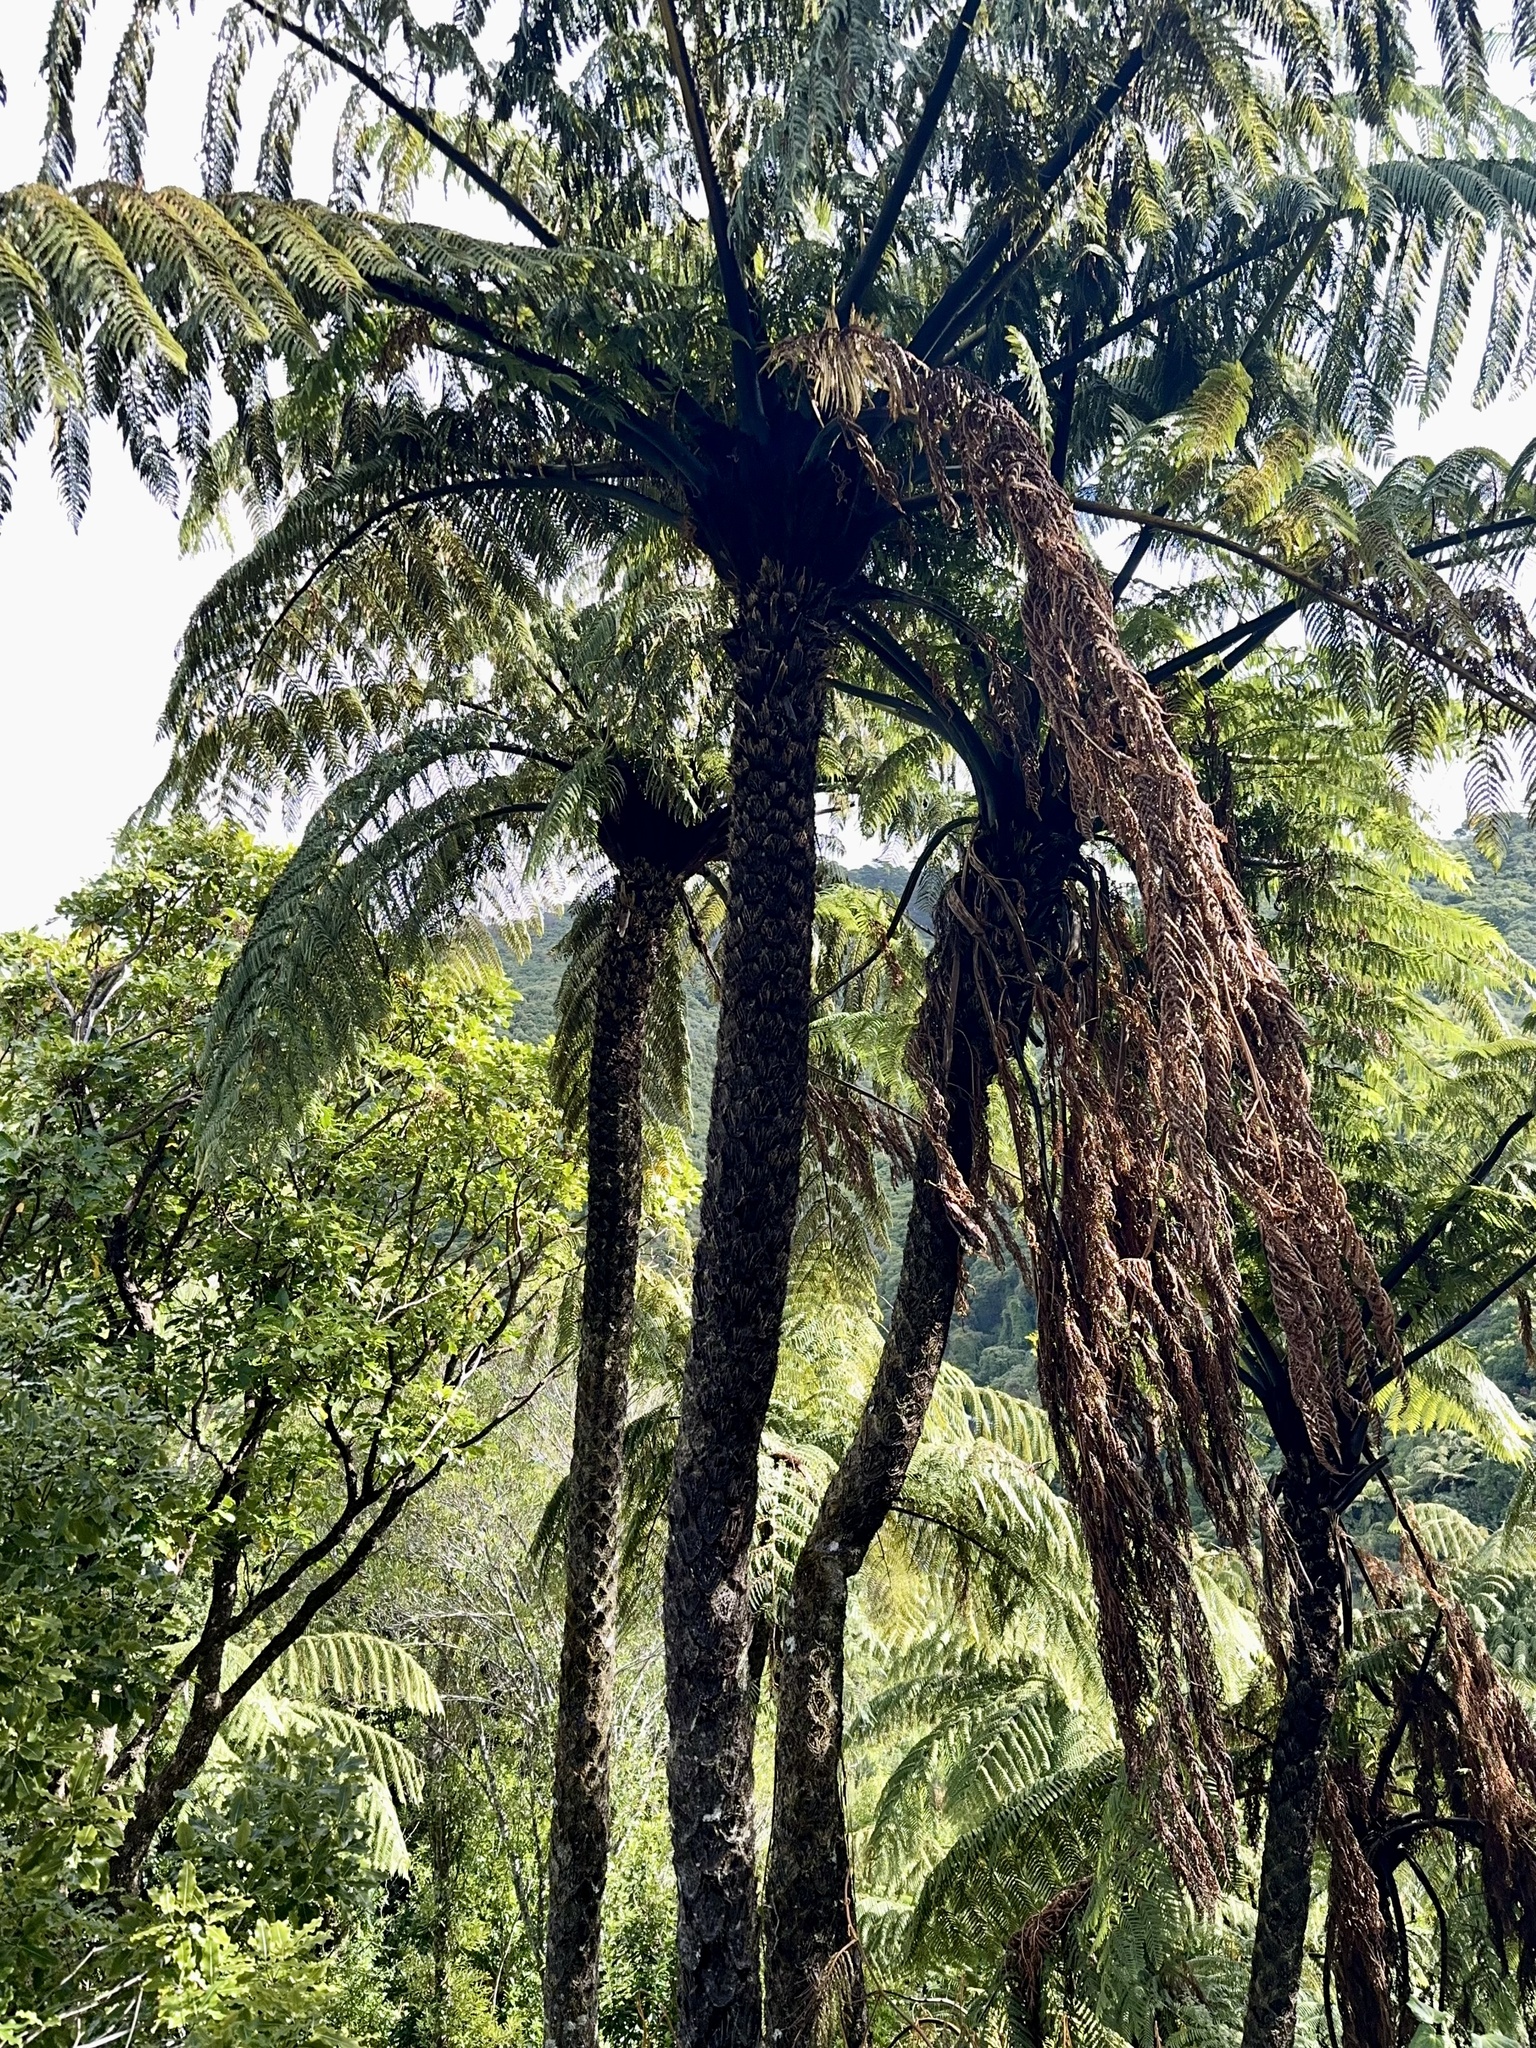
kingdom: Plantae
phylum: Tracheophyta
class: Polypodiopsida
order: Cyatheales
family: Cyatheaceae
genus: Sphaeropteris
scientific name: Sphaeropteris medullaris
